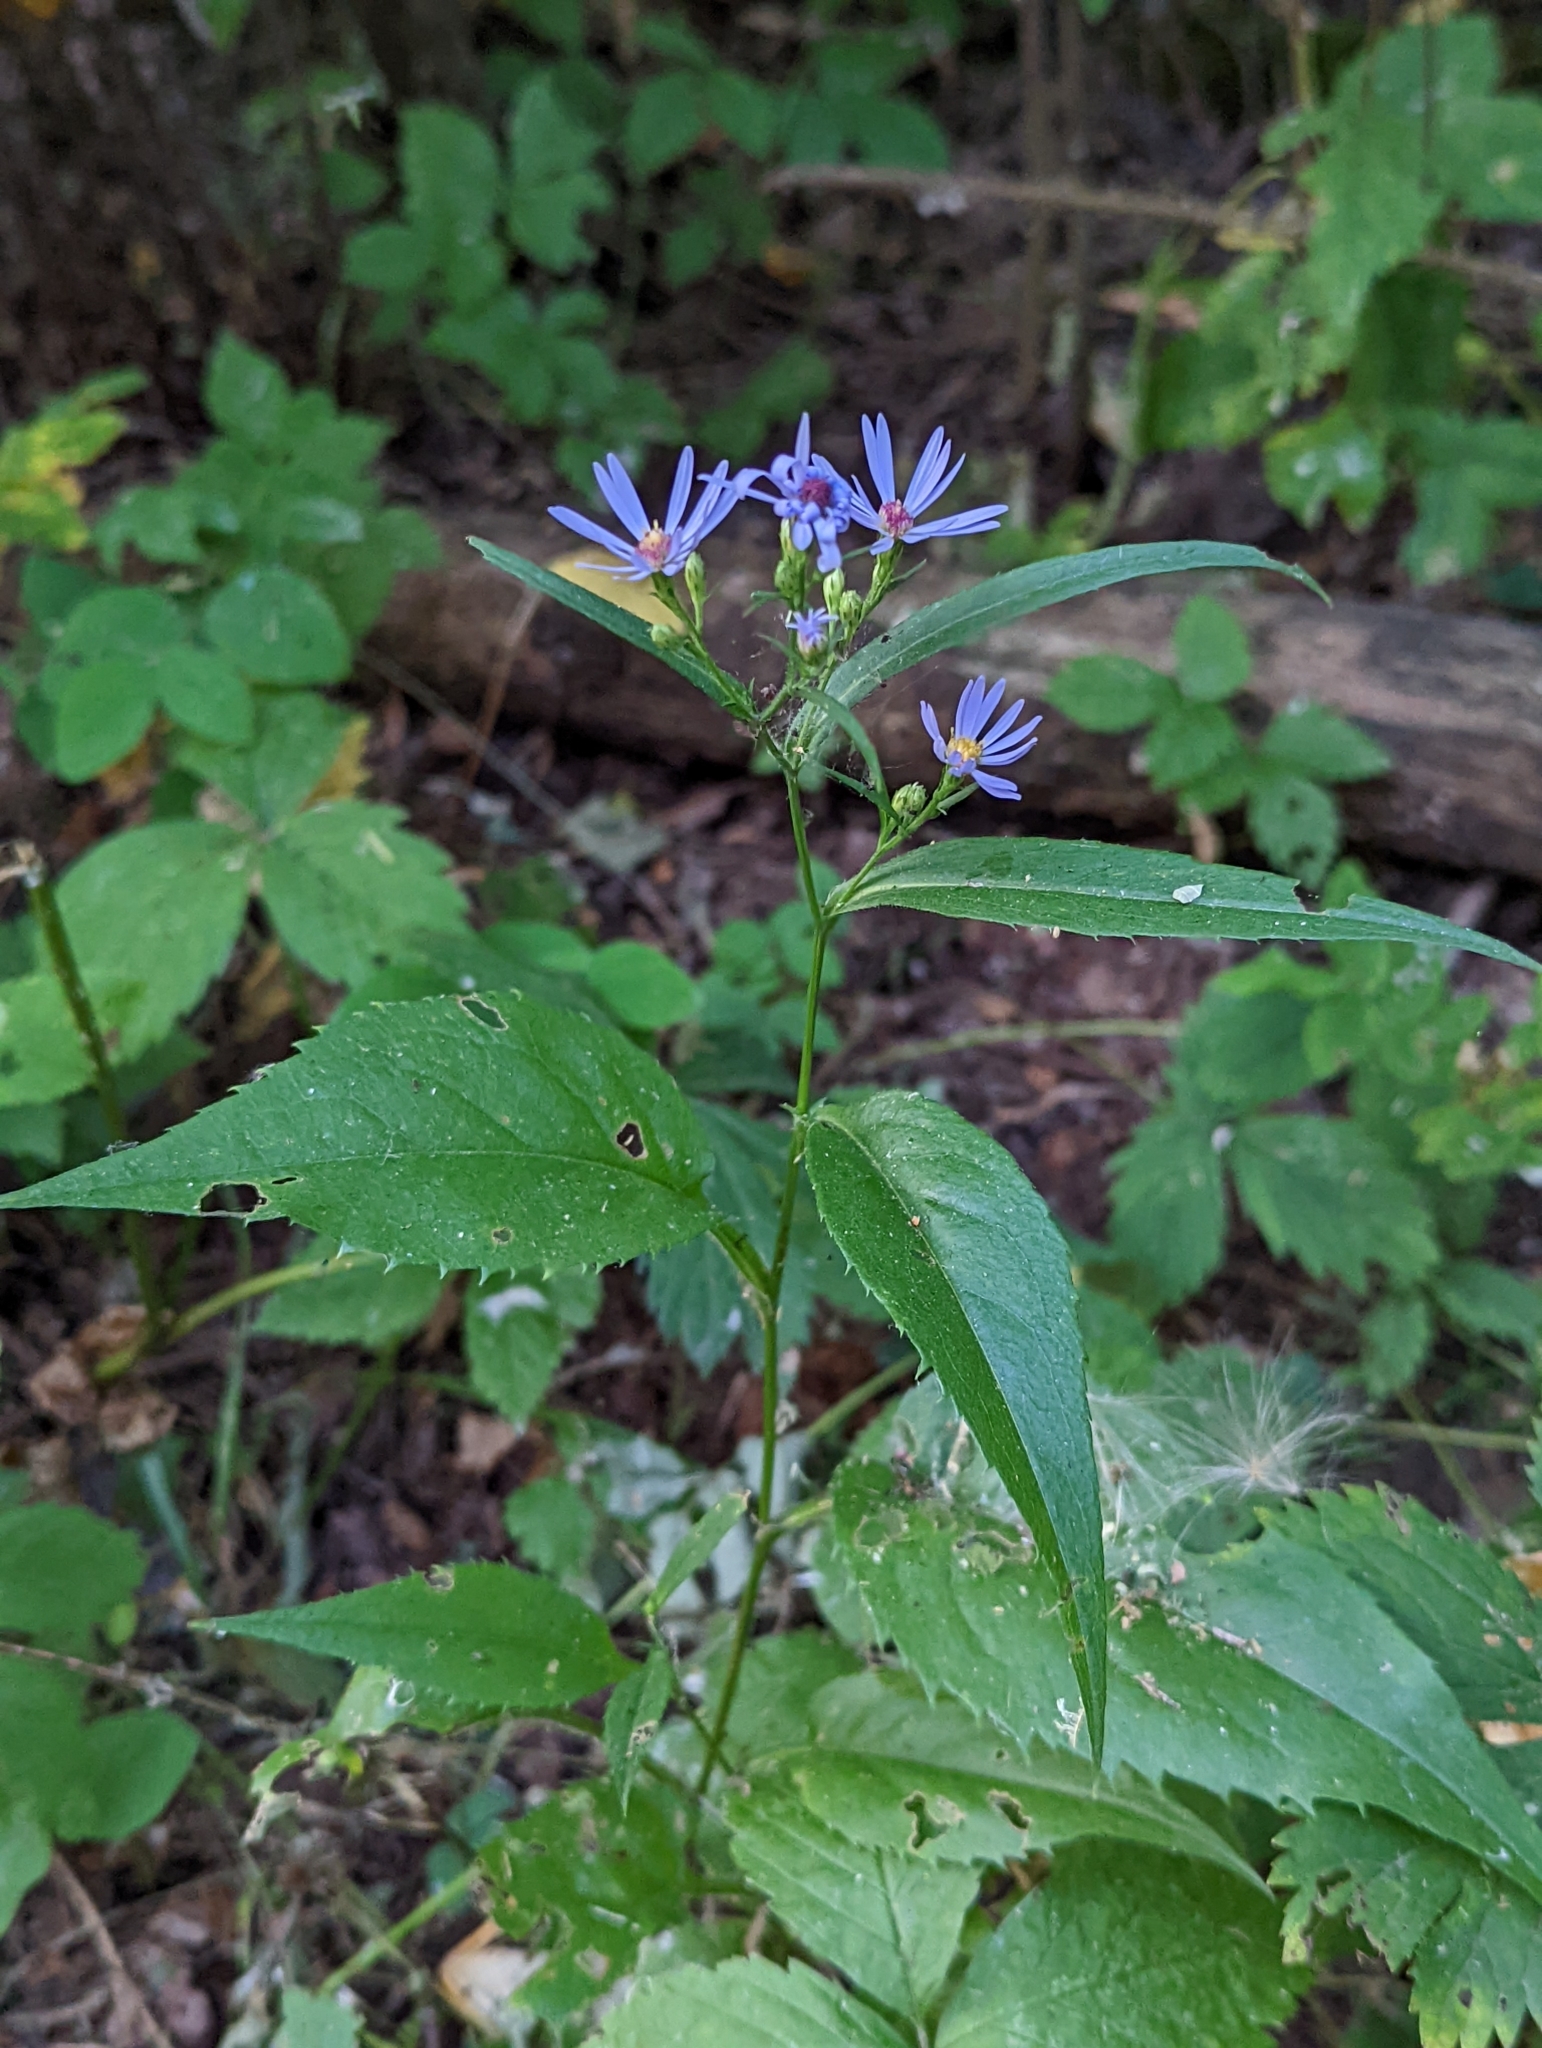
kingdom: Plantae
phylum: Tracheophyta
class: Magnoliopsida
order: Asterales
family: Asteraceae
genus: Symphyotrichum
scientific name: Symphyotrichum ciliolatum
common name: Fringed blue aster
